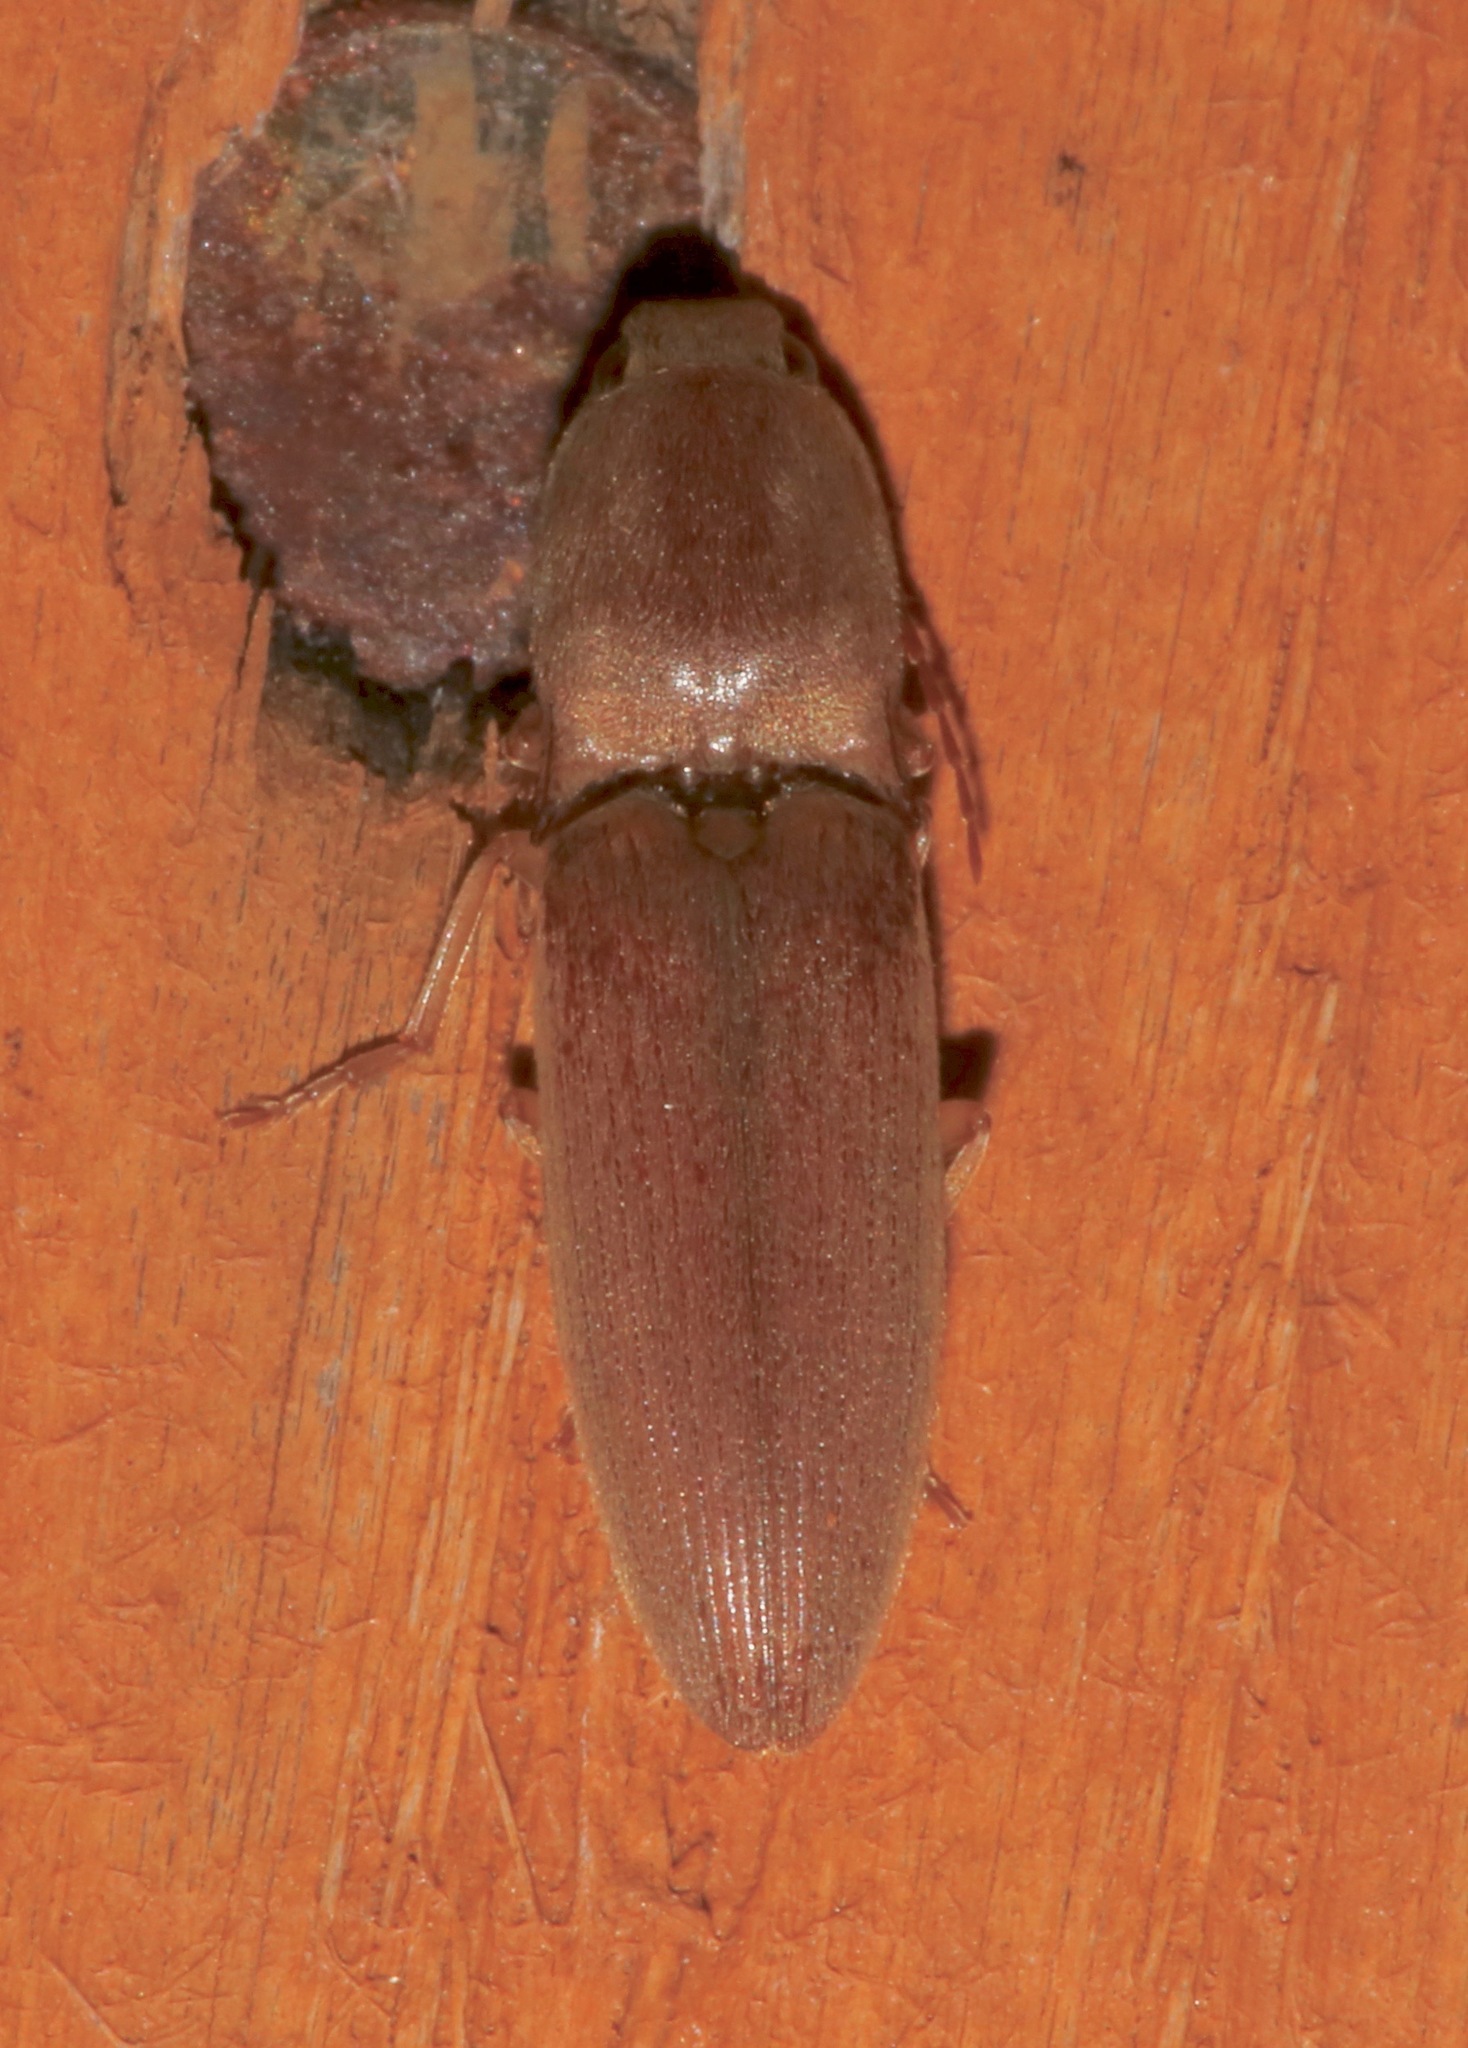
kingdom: Animalia
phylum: Arthropoda
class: Insecta
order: Coleoptera
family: Elateridae
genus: Monocrepidius
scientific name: Monocrepidius lividus
